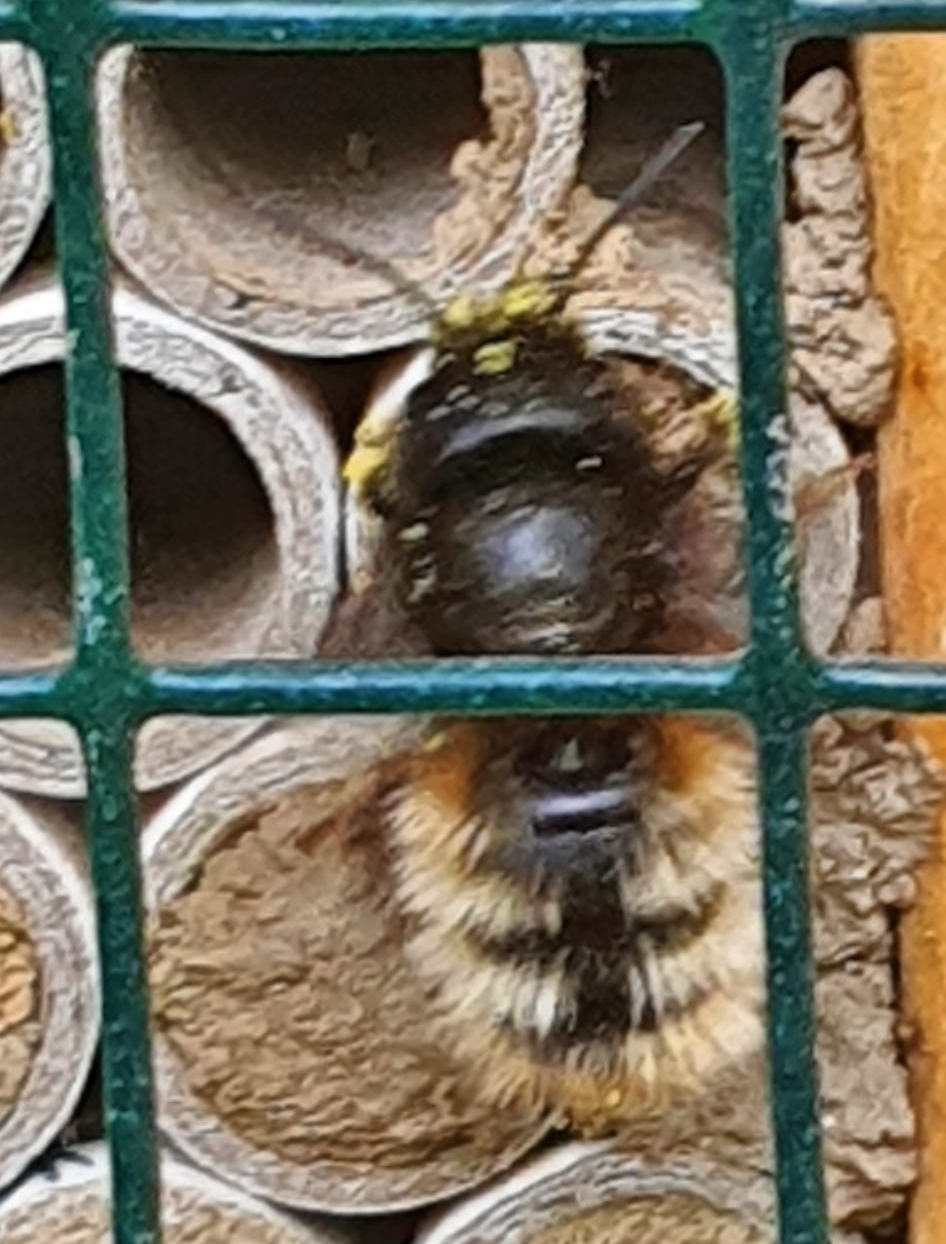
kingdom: Animalia
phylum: Arthropoda
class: Insecta
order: Hymenoptera
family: Megachilidae
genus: Osmia
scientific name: Osmia cornuta
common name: Mason bee
